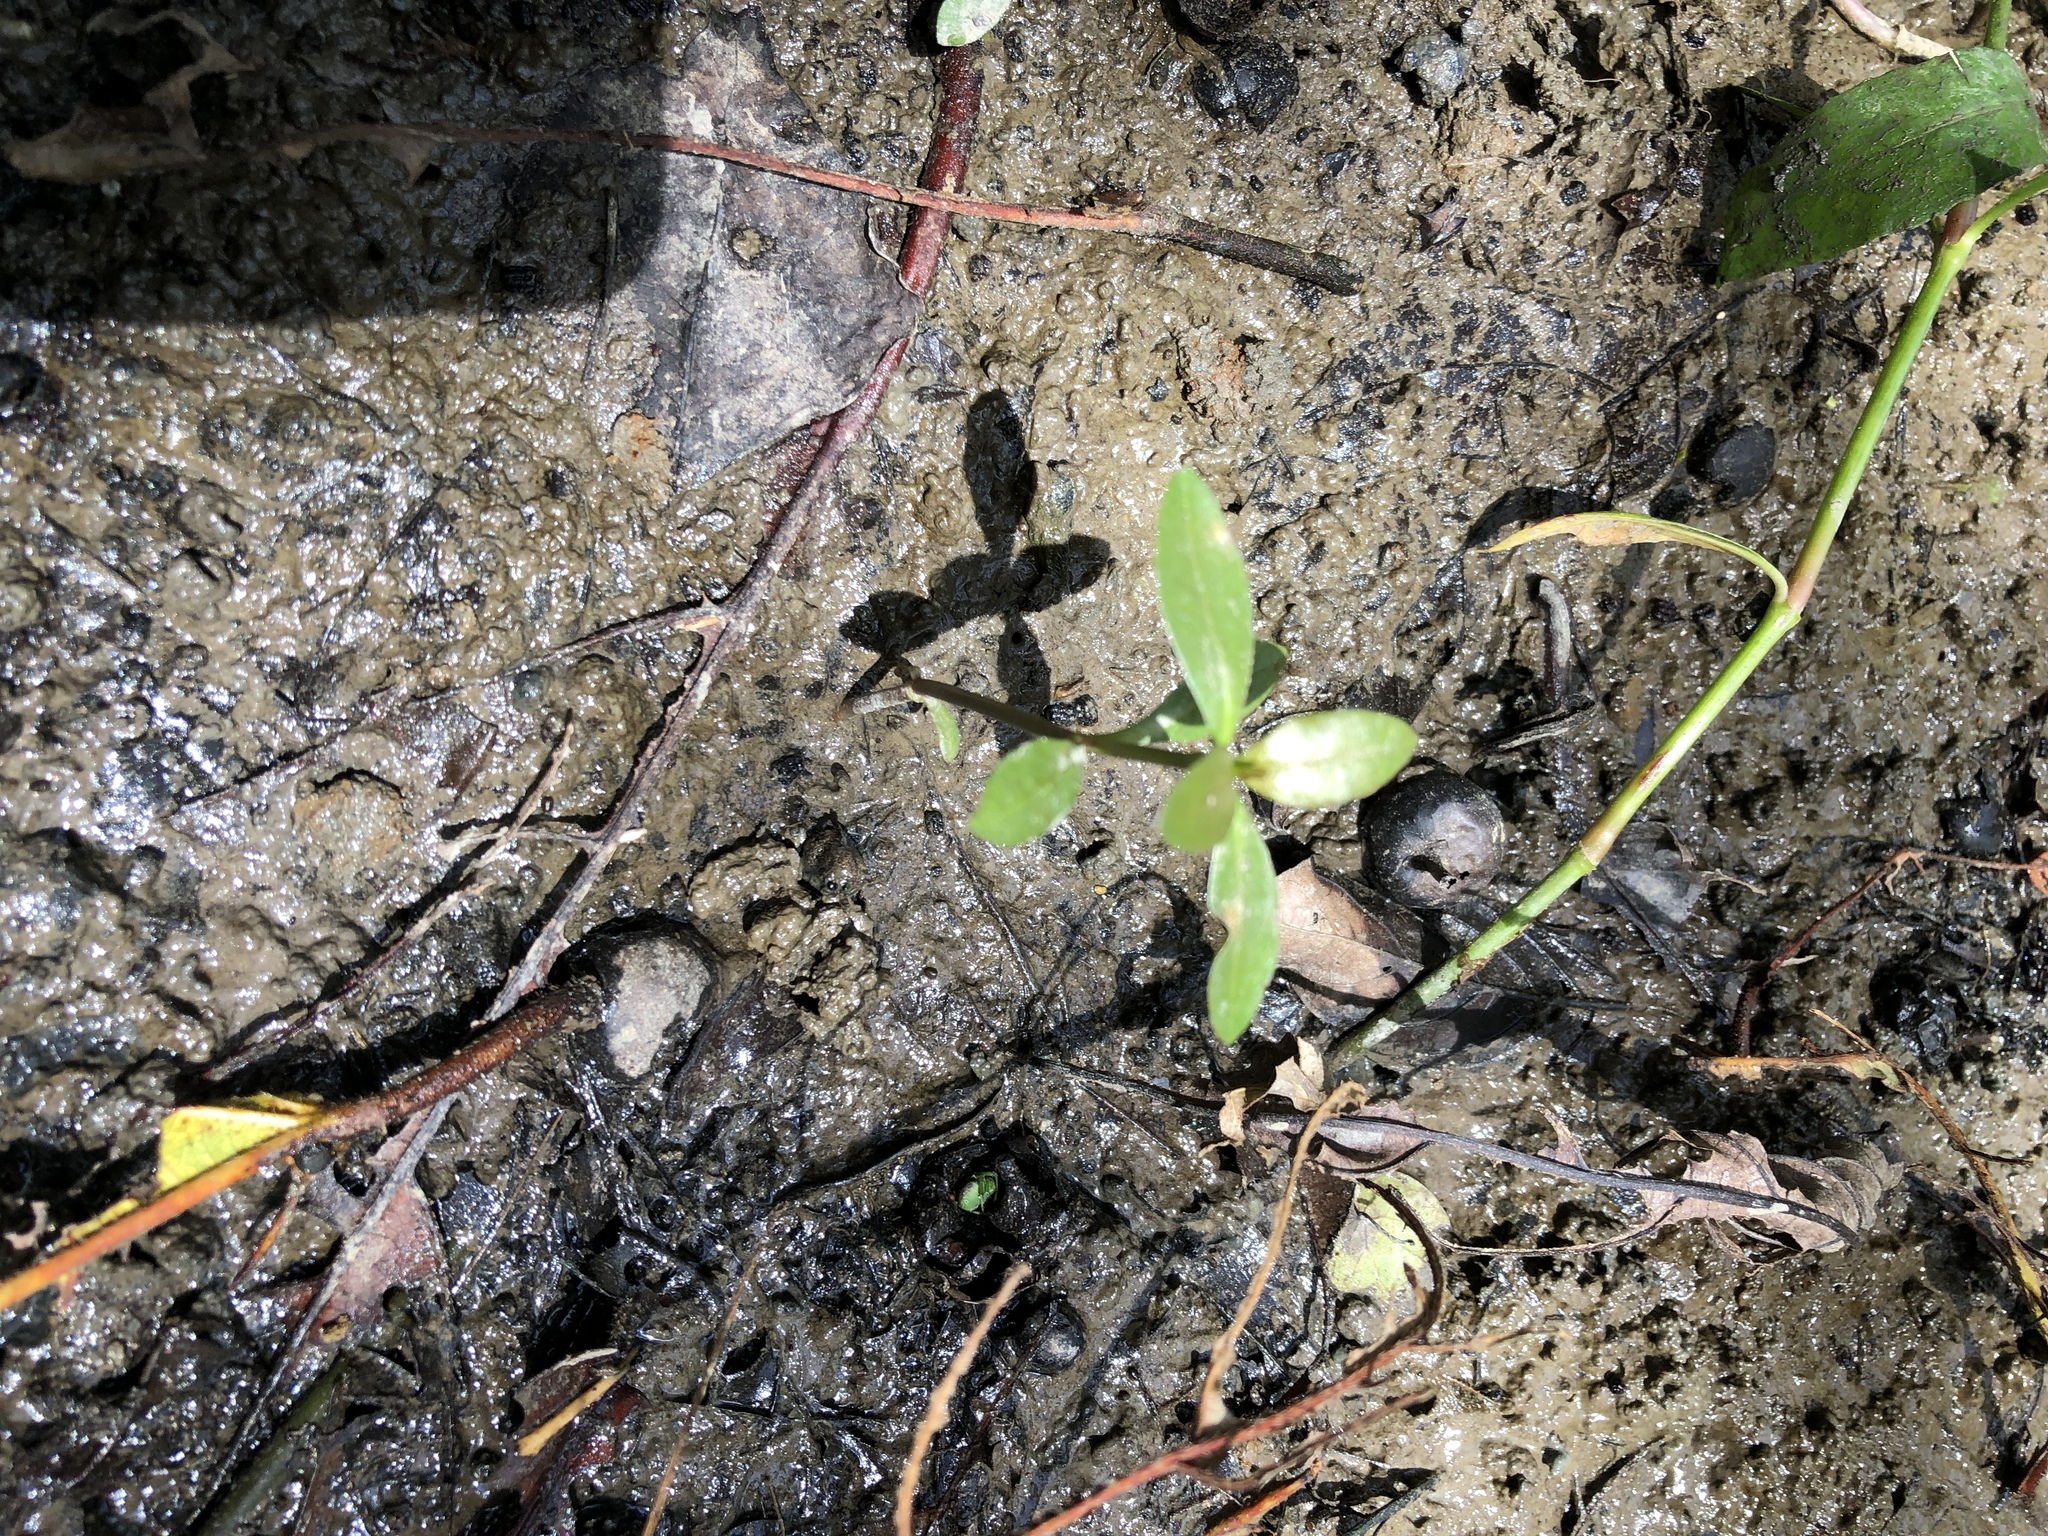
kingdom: Plantae
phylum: Tracheophyta
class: Magnoliopsida
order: Caryophyllales
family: Amaranthaceae
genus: Alternanthera
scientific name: Alternanthera philoxeroides
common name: Alligatorweed
